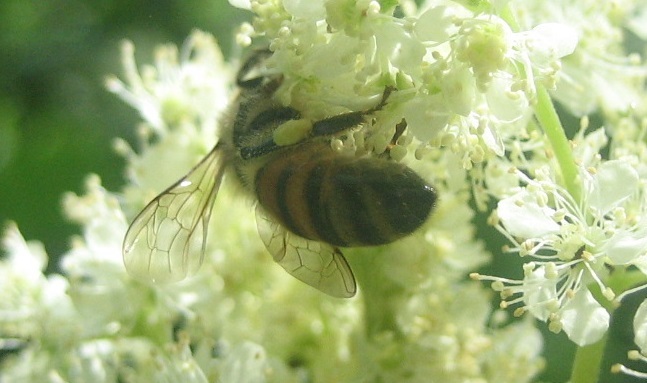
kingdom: Animalia
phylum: Arthropoda
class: Insecta
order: Hymenoptera
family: Apidae
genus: Apis
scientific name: Apis mellifera
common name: Honey bee
